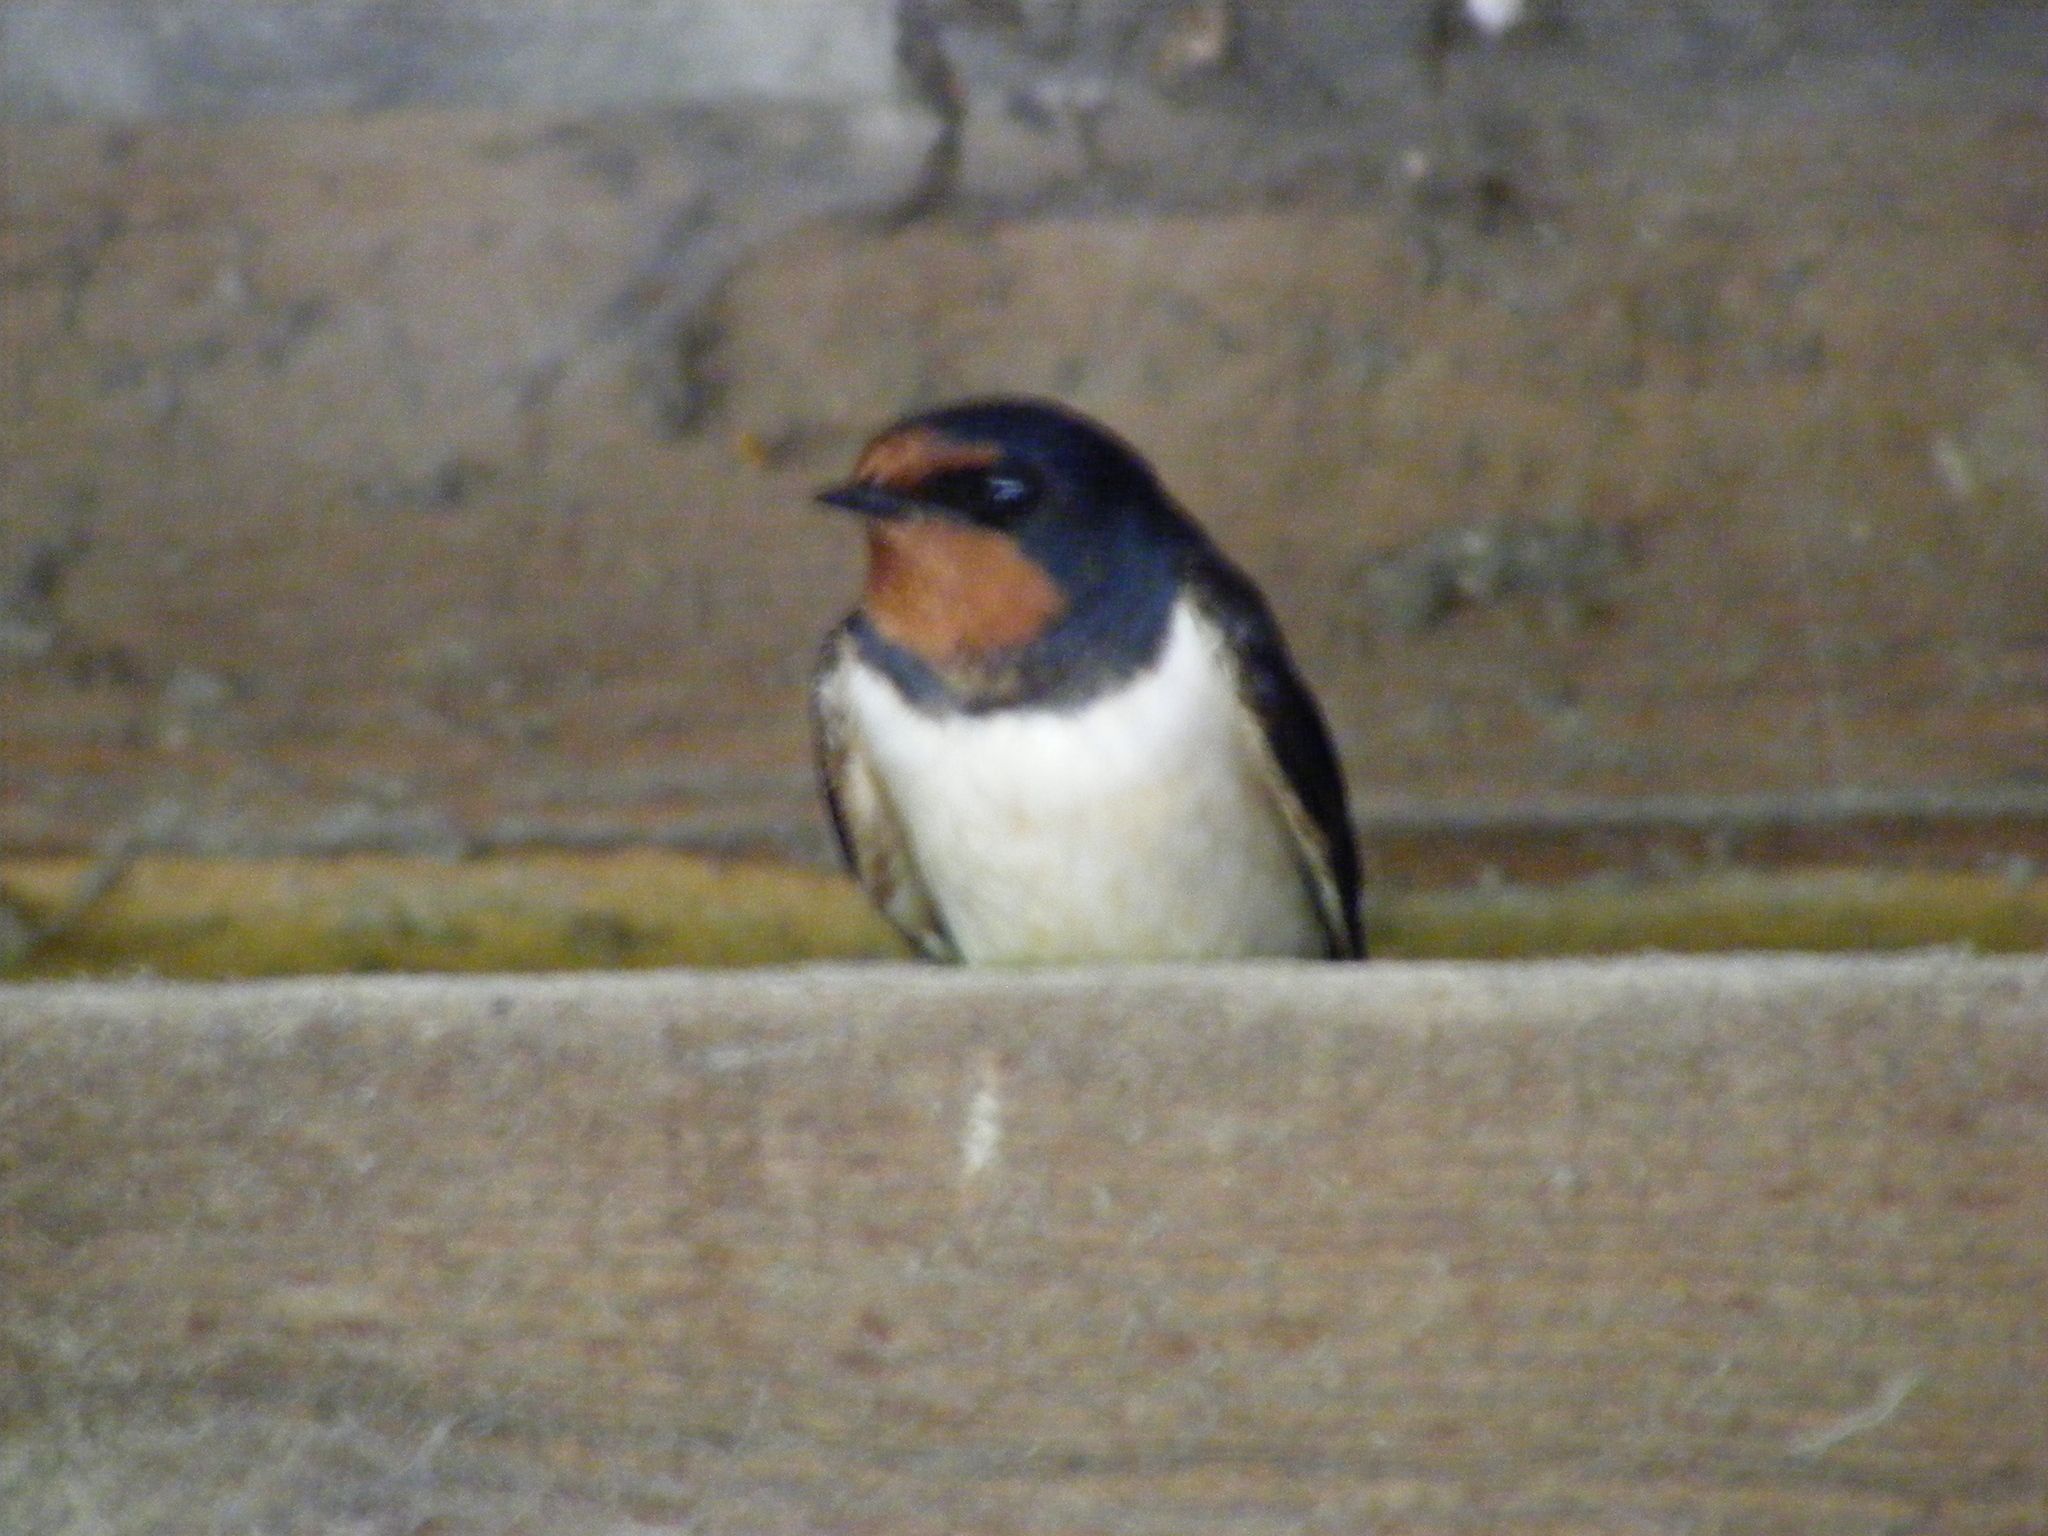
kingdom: Animalia
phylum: Chordata
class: Aves
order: Passeriformes
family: Hirundinidae
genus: Hirundo
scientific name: Hirundo rustica
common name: Barn swallow
